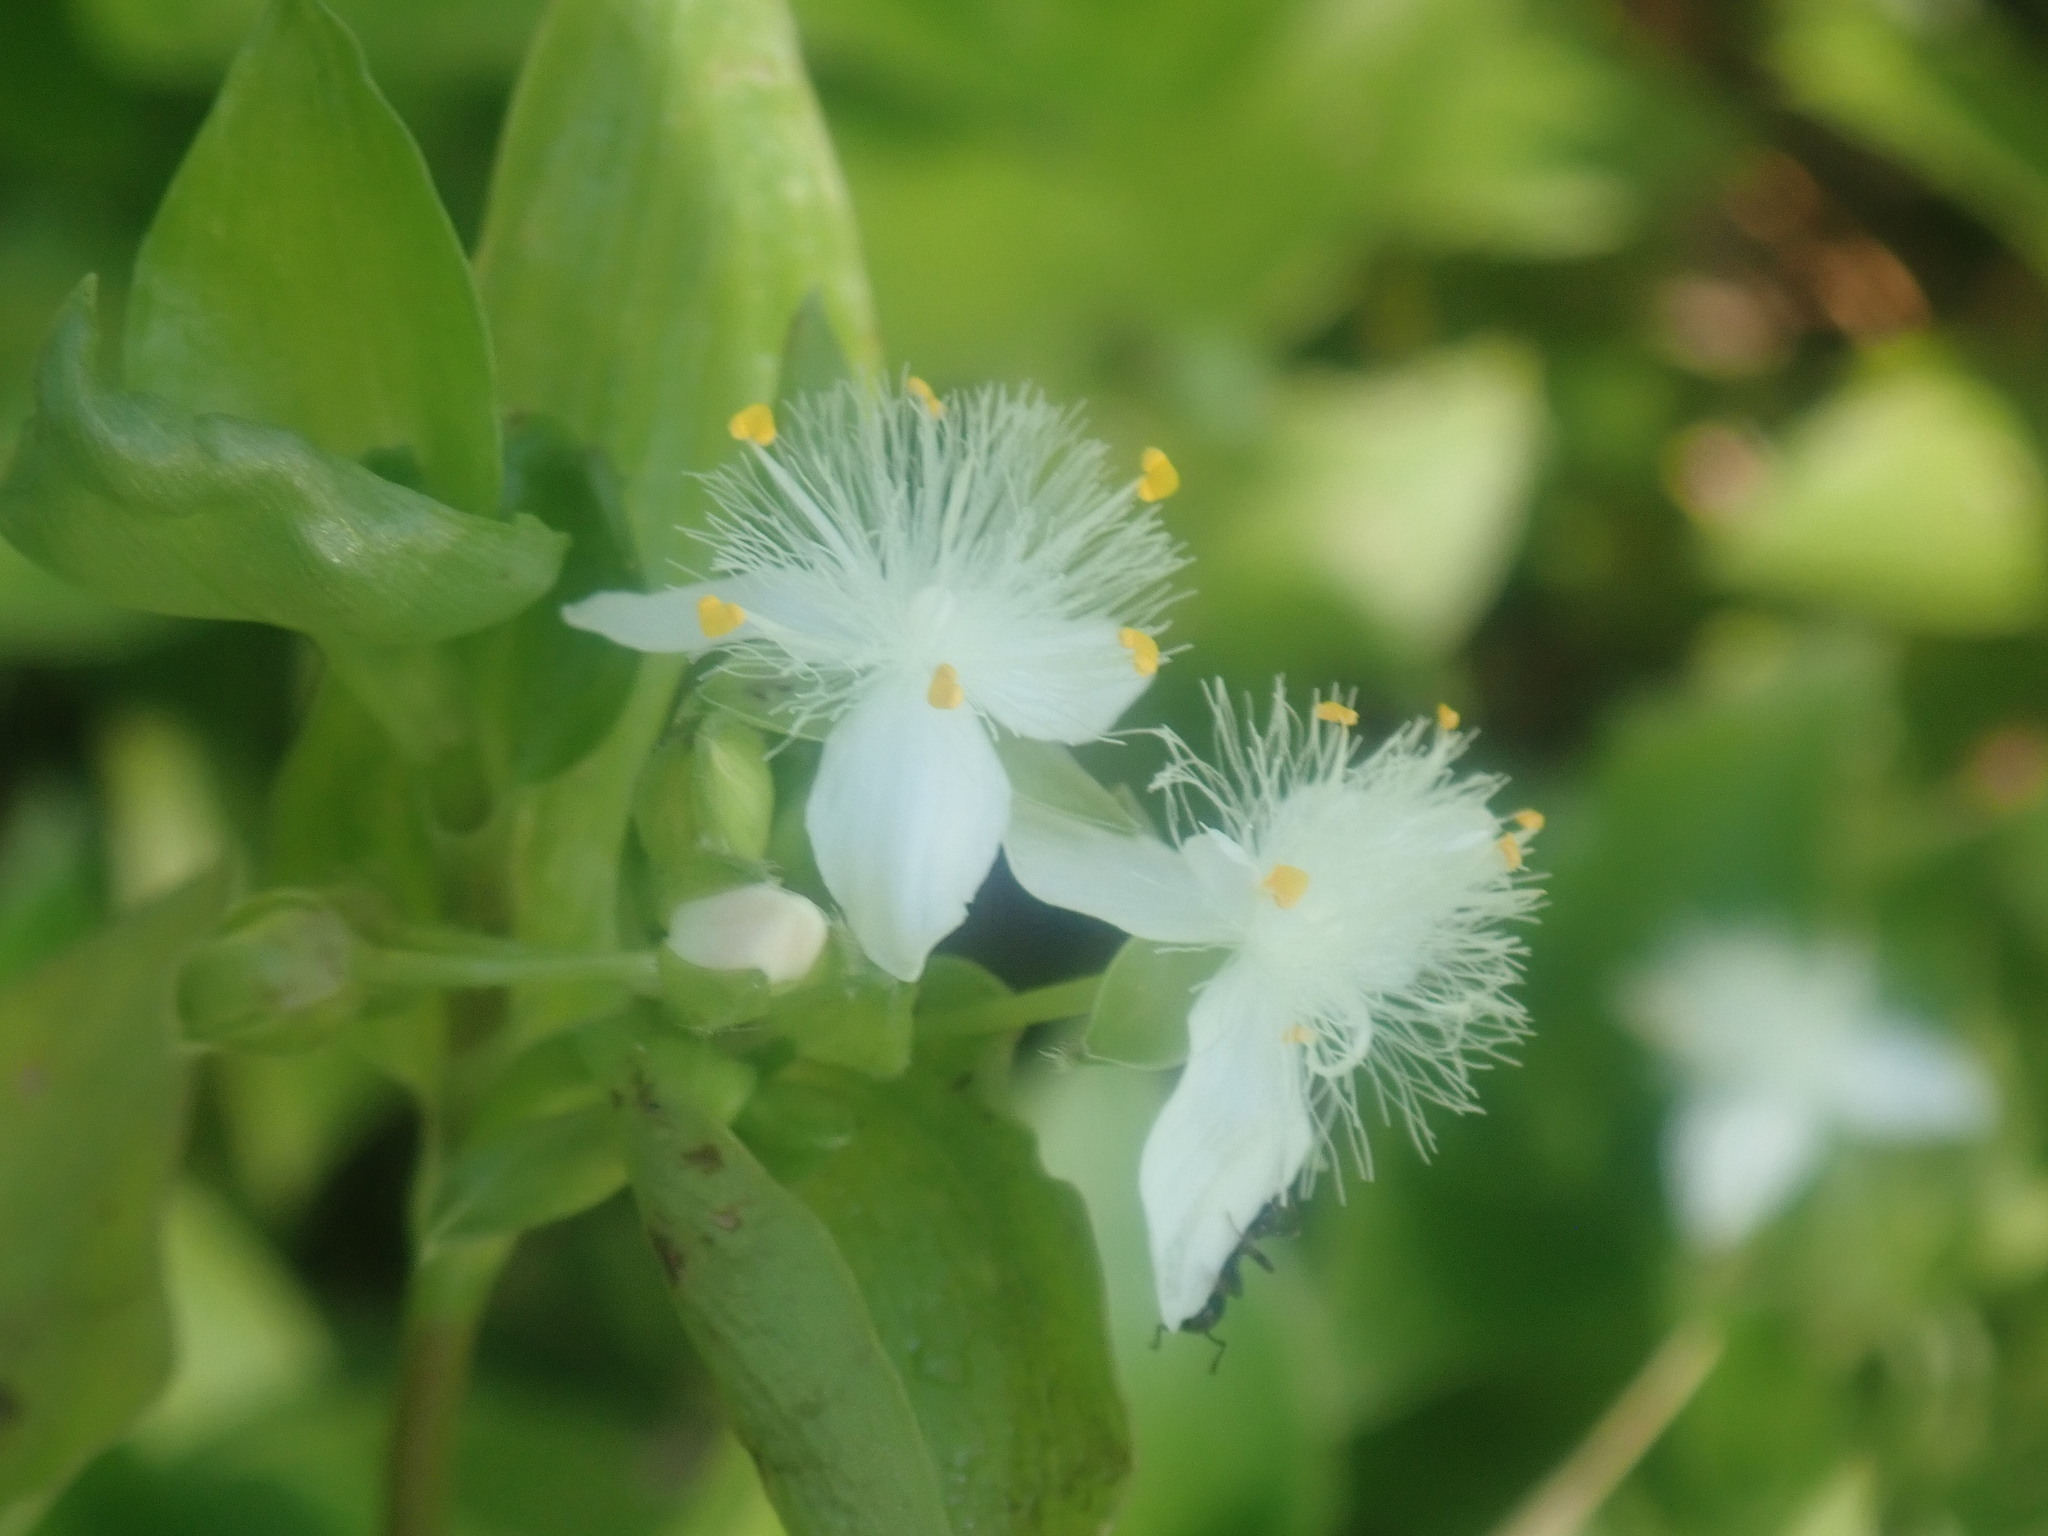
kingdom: Plantae
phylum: Tracheophyta
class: Liliopsida
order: Commelinales
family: Commelinaceae
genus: Tradescantia
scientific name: Tradescantia fluminensis
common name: Wandering-jew
